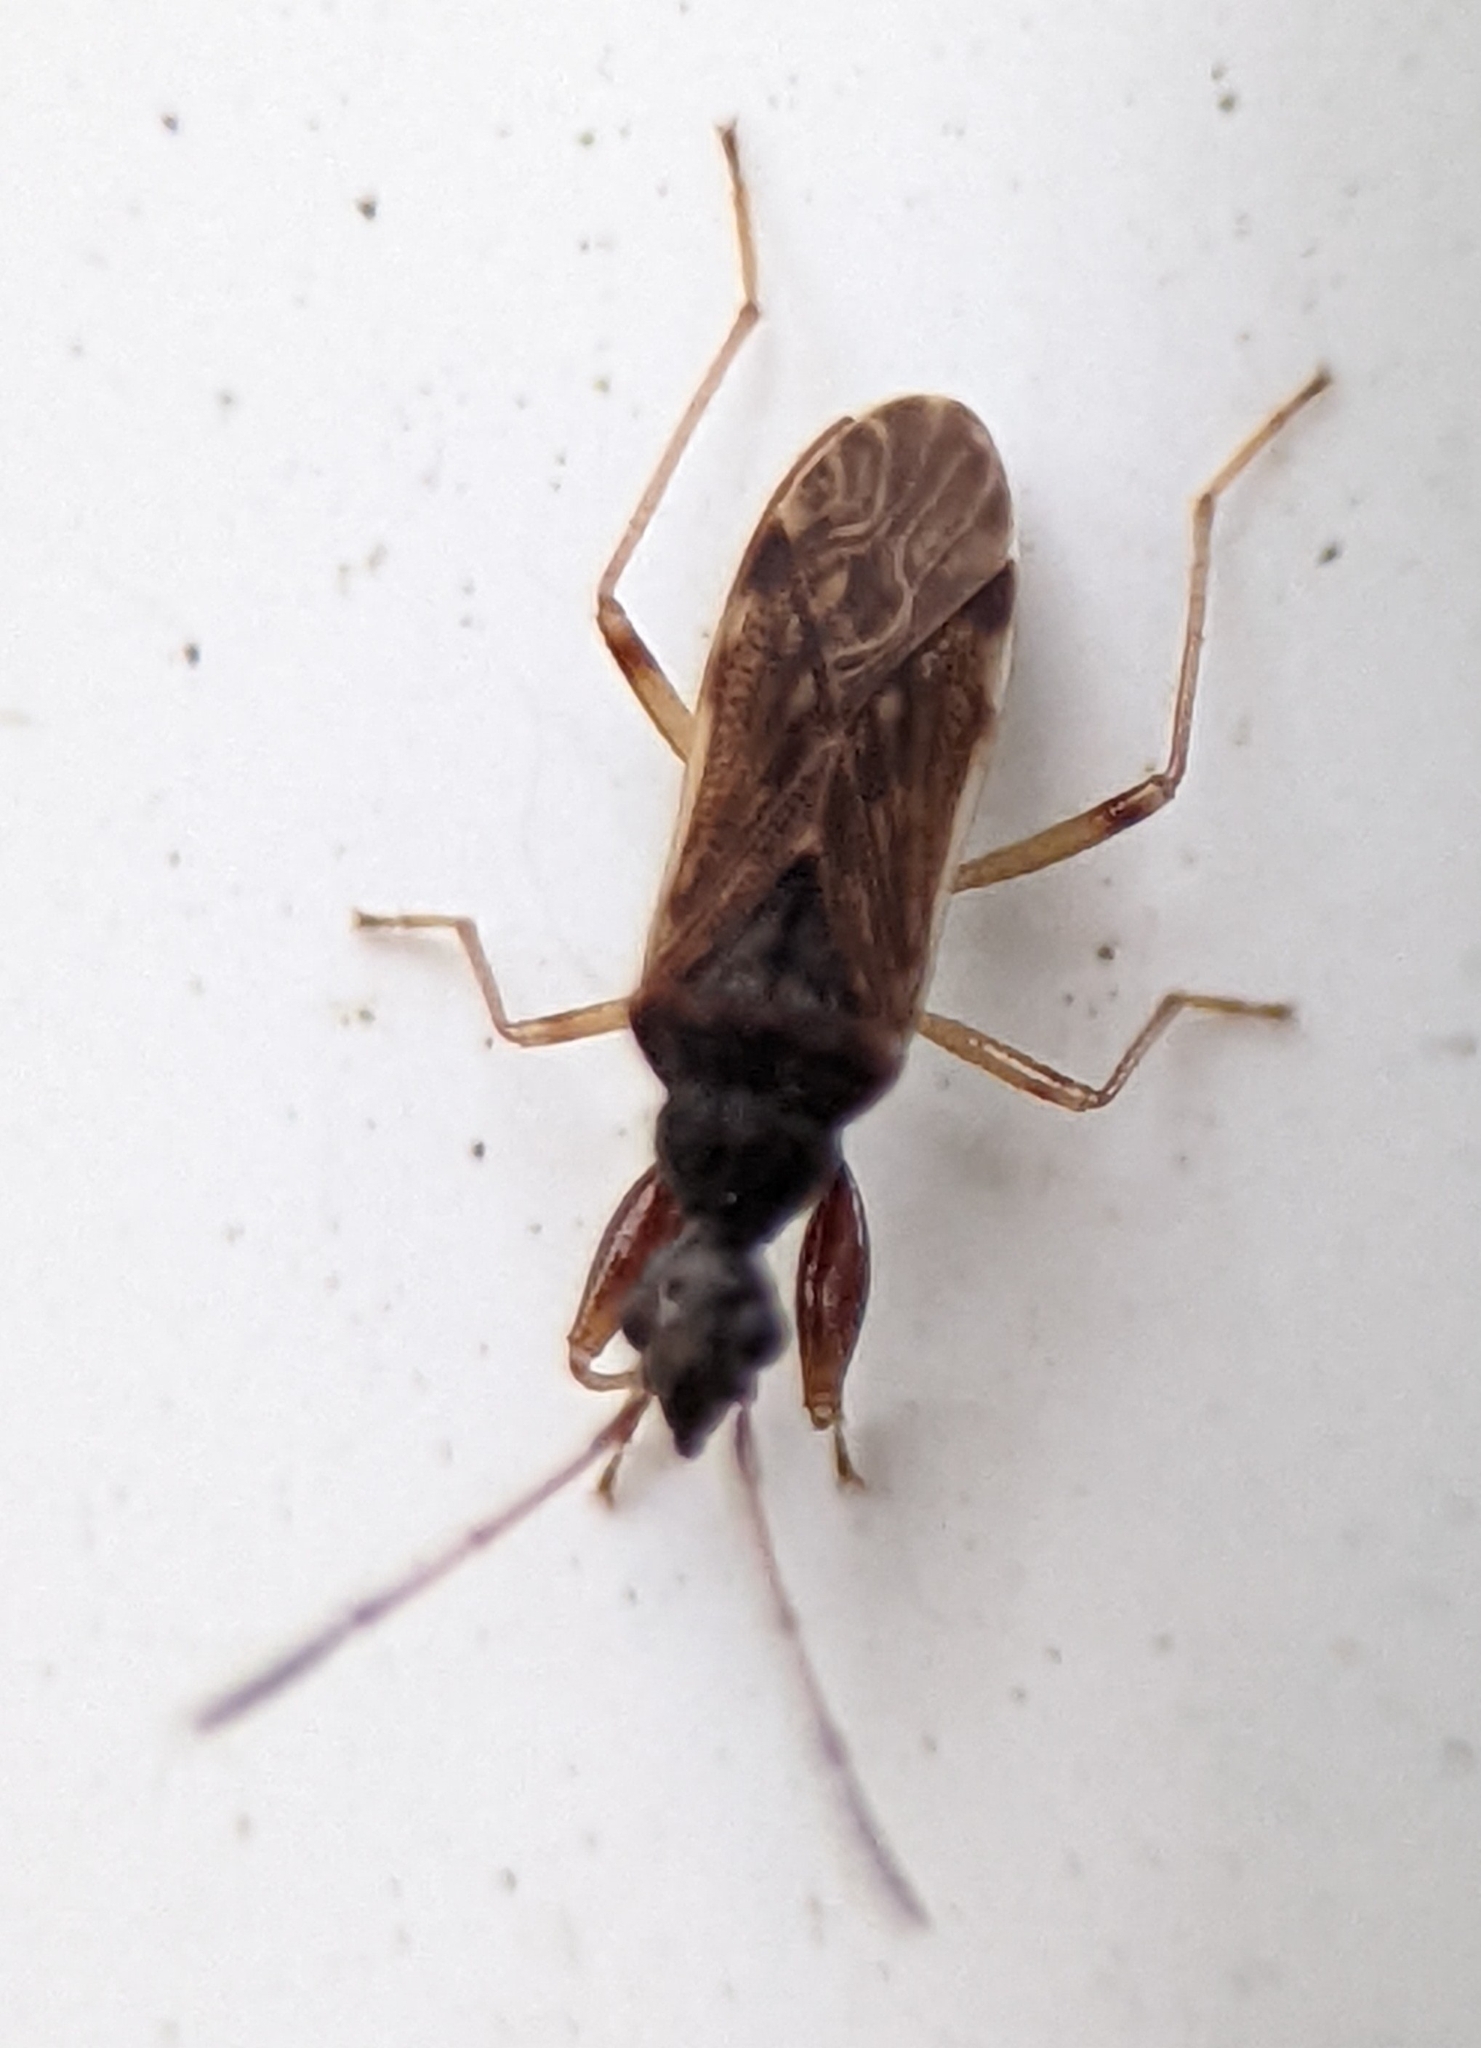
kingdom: Animalia
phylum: Arthropoda
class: Insecta
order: Hemiptera
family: Rhyparochromidae
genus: Heraeus
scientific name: Heraeus plebejus
